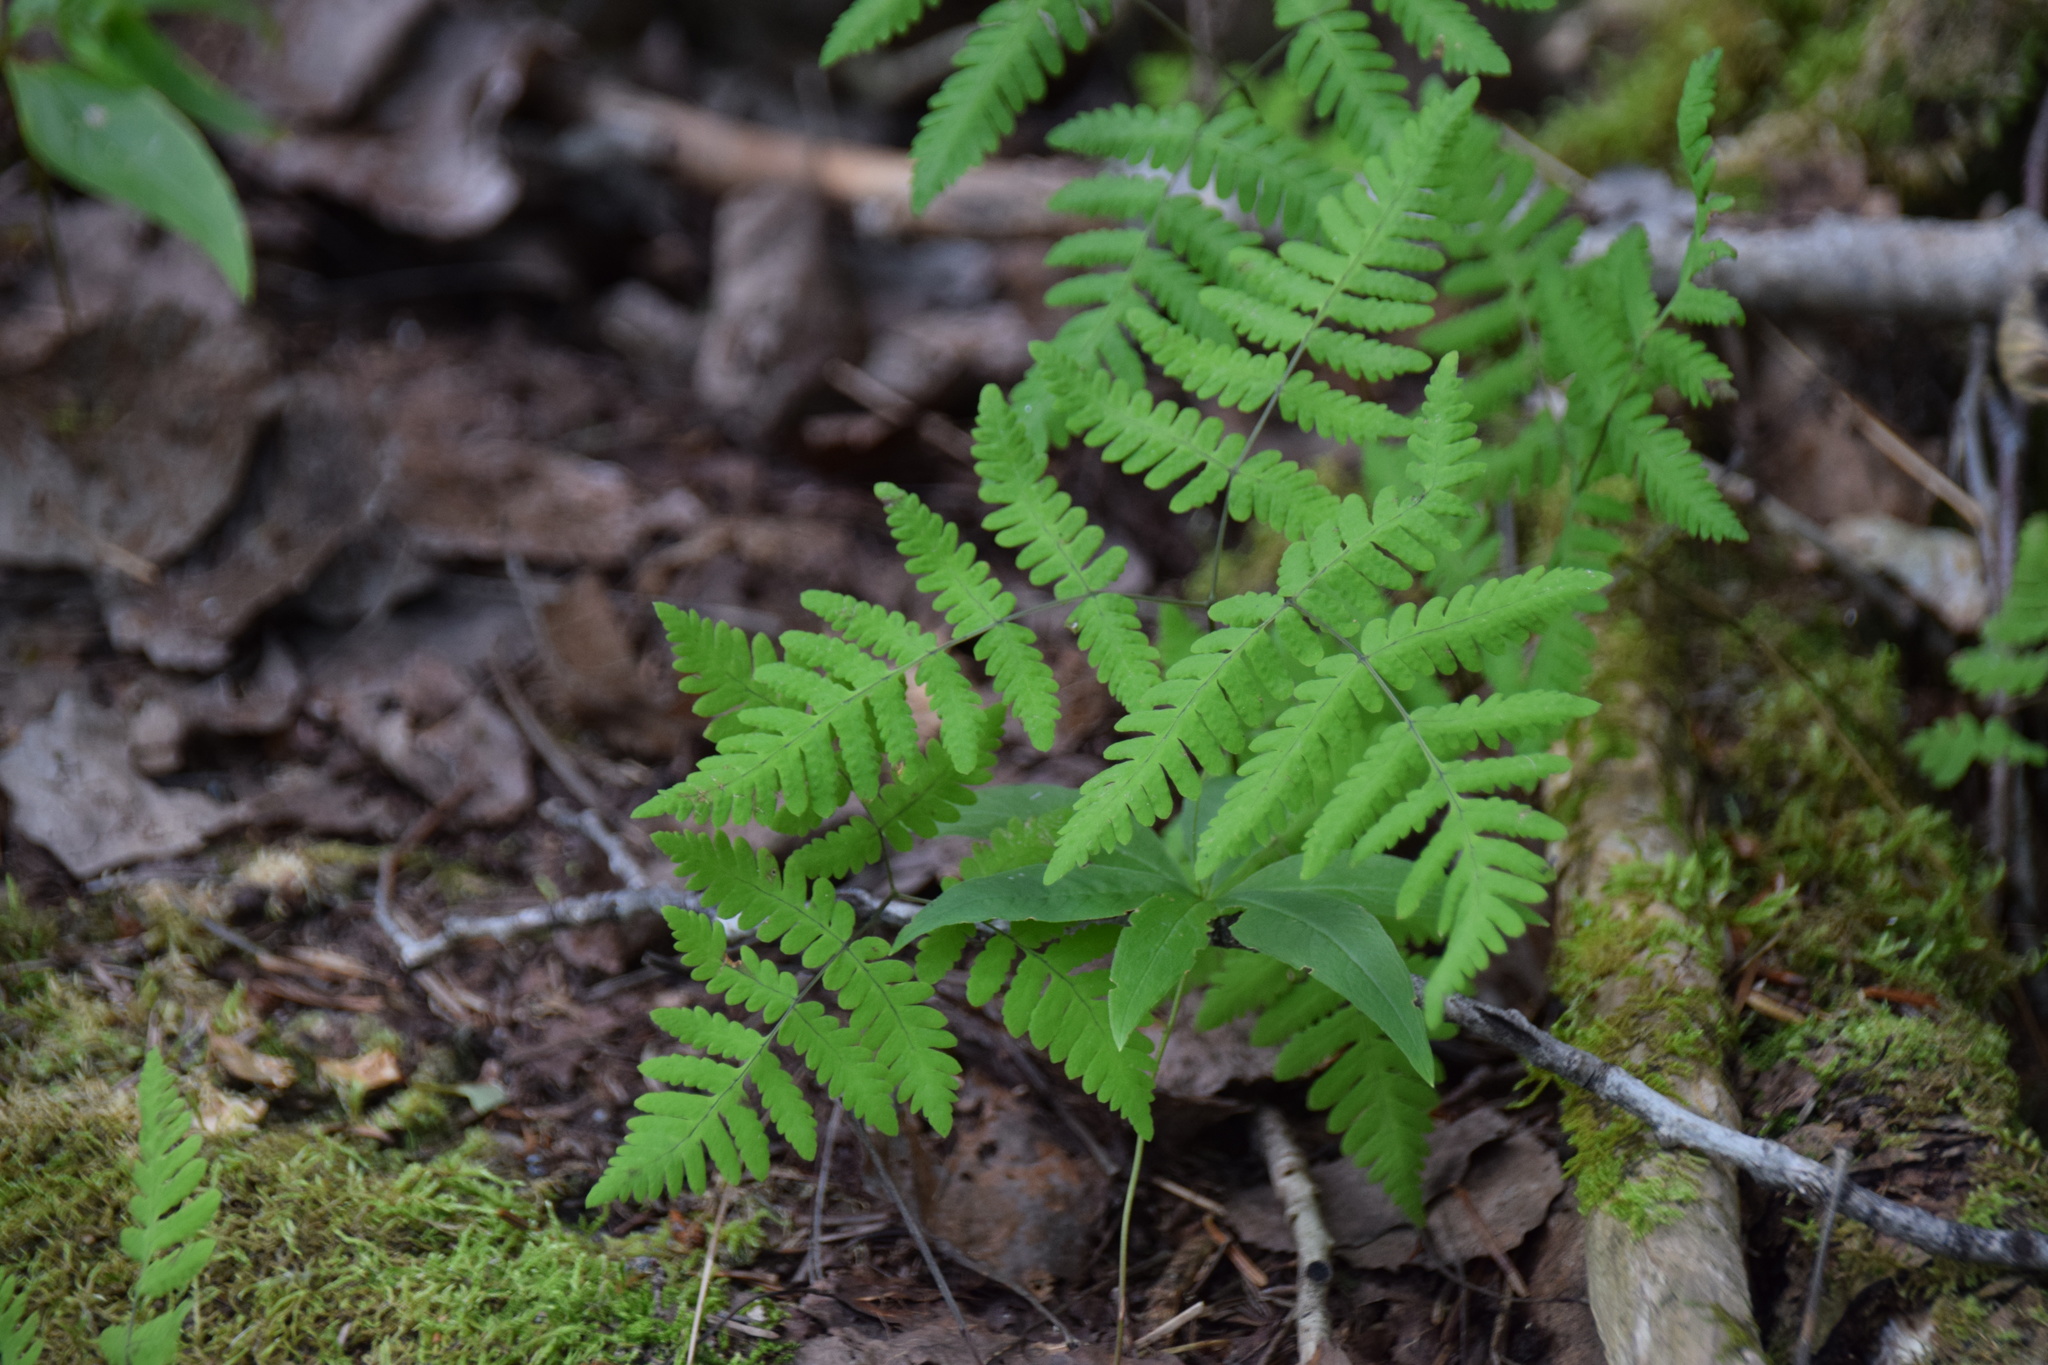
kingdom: Plantae
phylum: Tracheophyta
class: Polypodiopsida
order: Polypodiales
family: Cystopteridaceae
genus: Gymnocarpium
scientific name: Gymnocarpium dryopteris
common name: Oak fern
